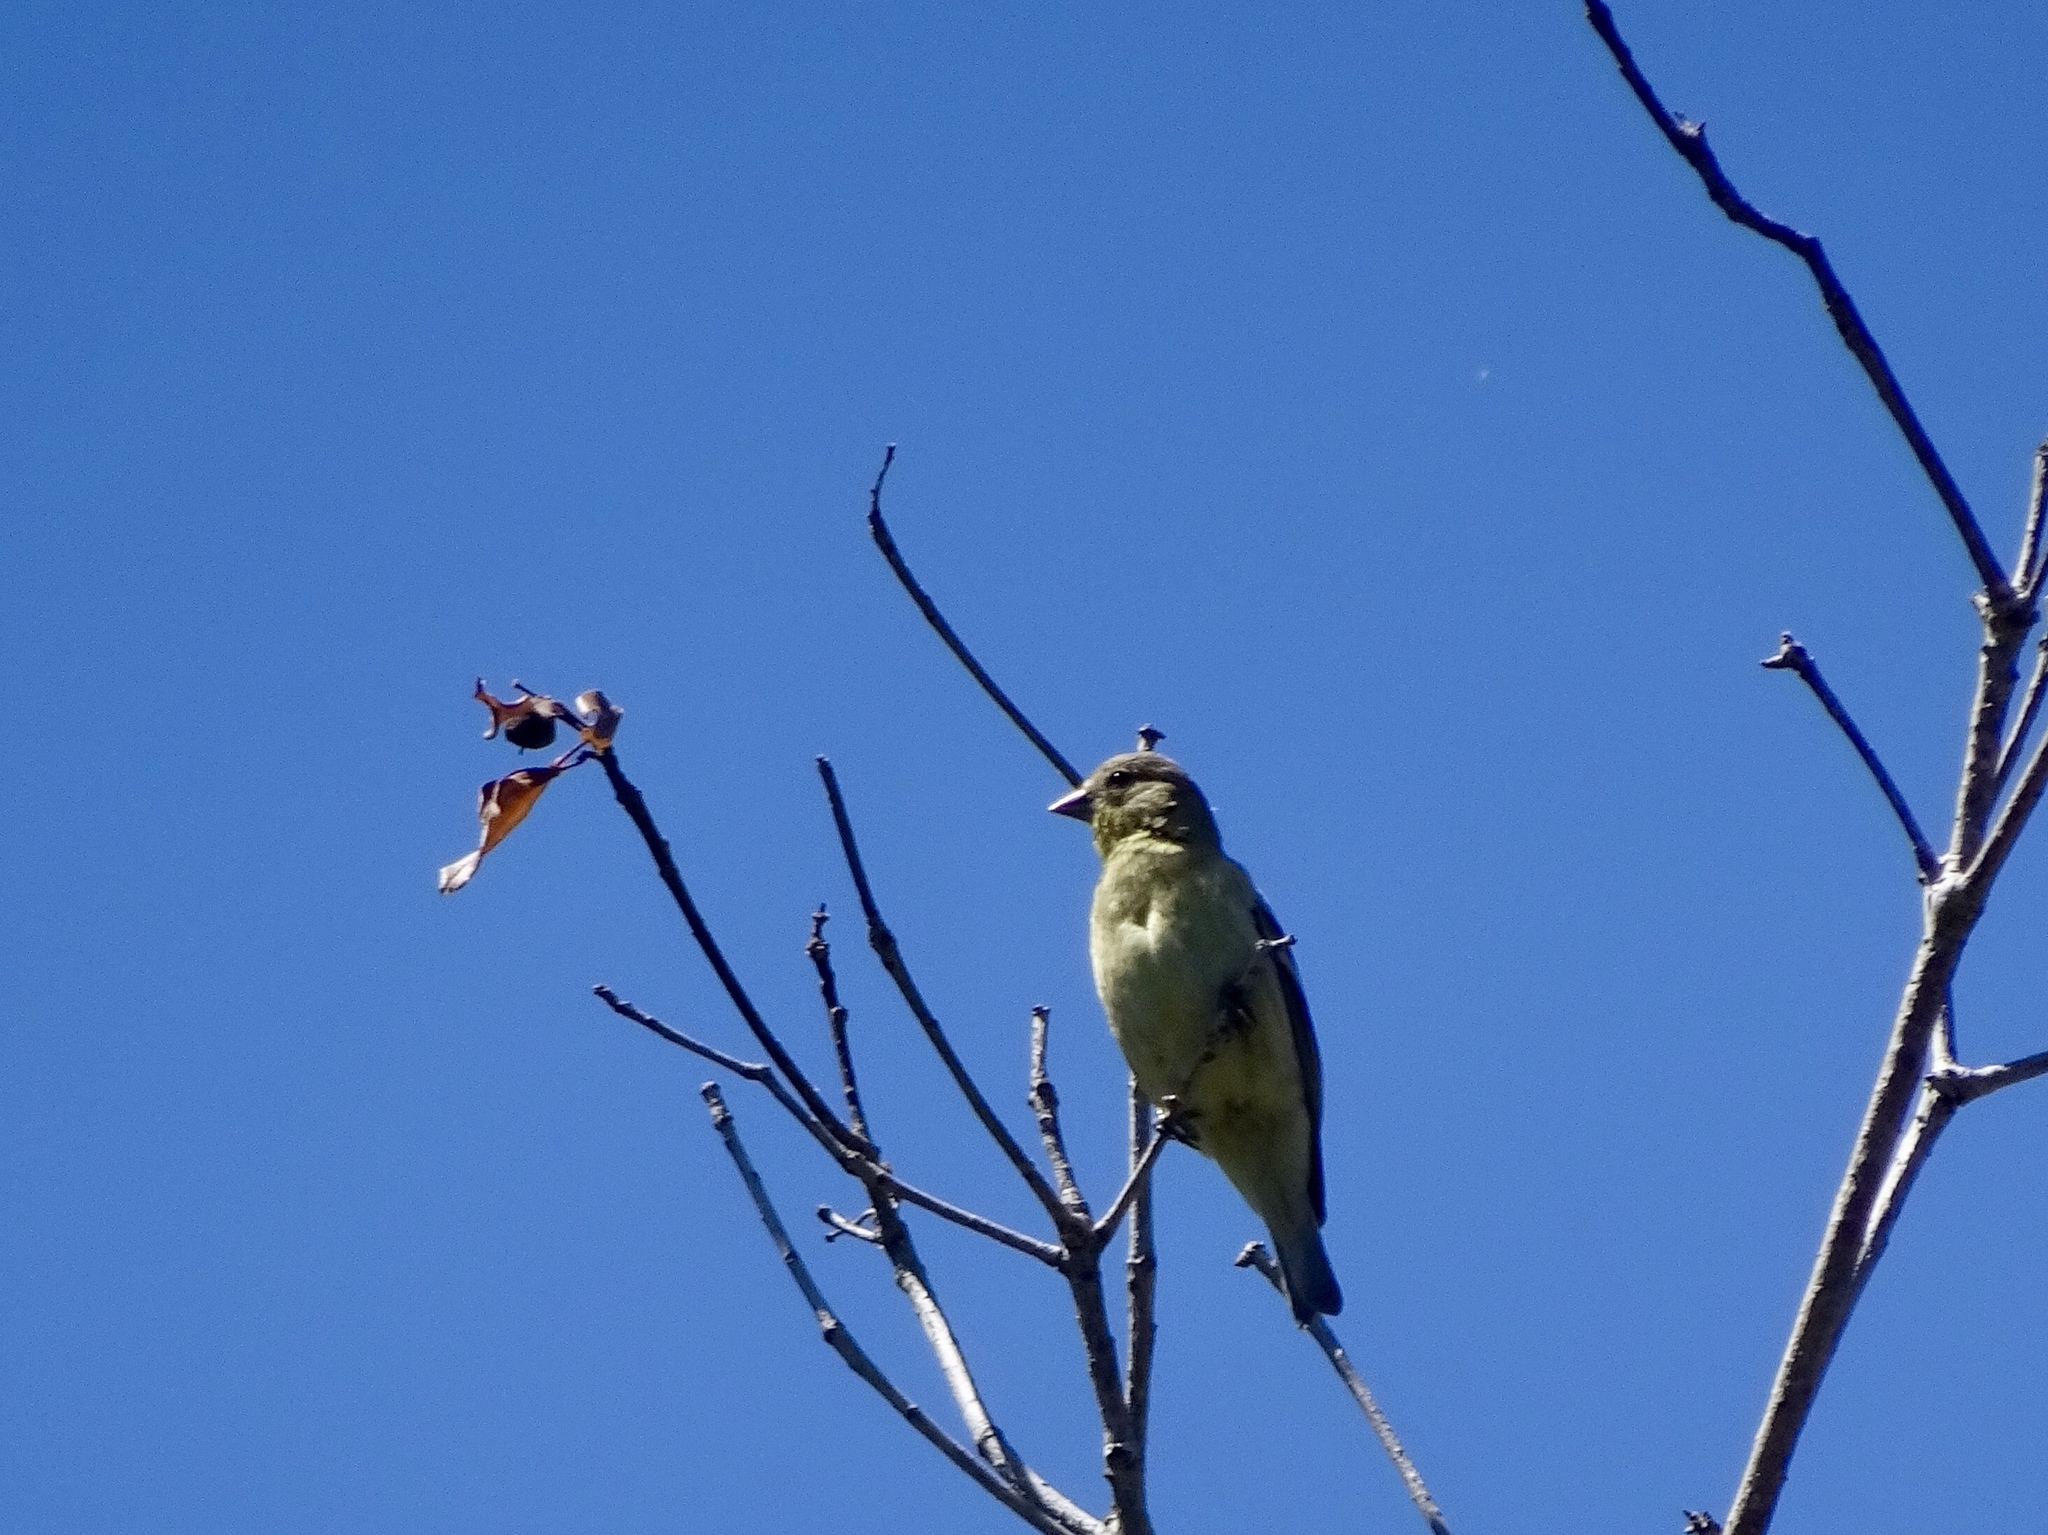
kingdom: Animalia
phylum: Chordata
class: Aves
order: Passeriformes
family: Fringillidae
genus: Spinus
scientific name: Spinus psaltria
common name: Lesser goldfinch
